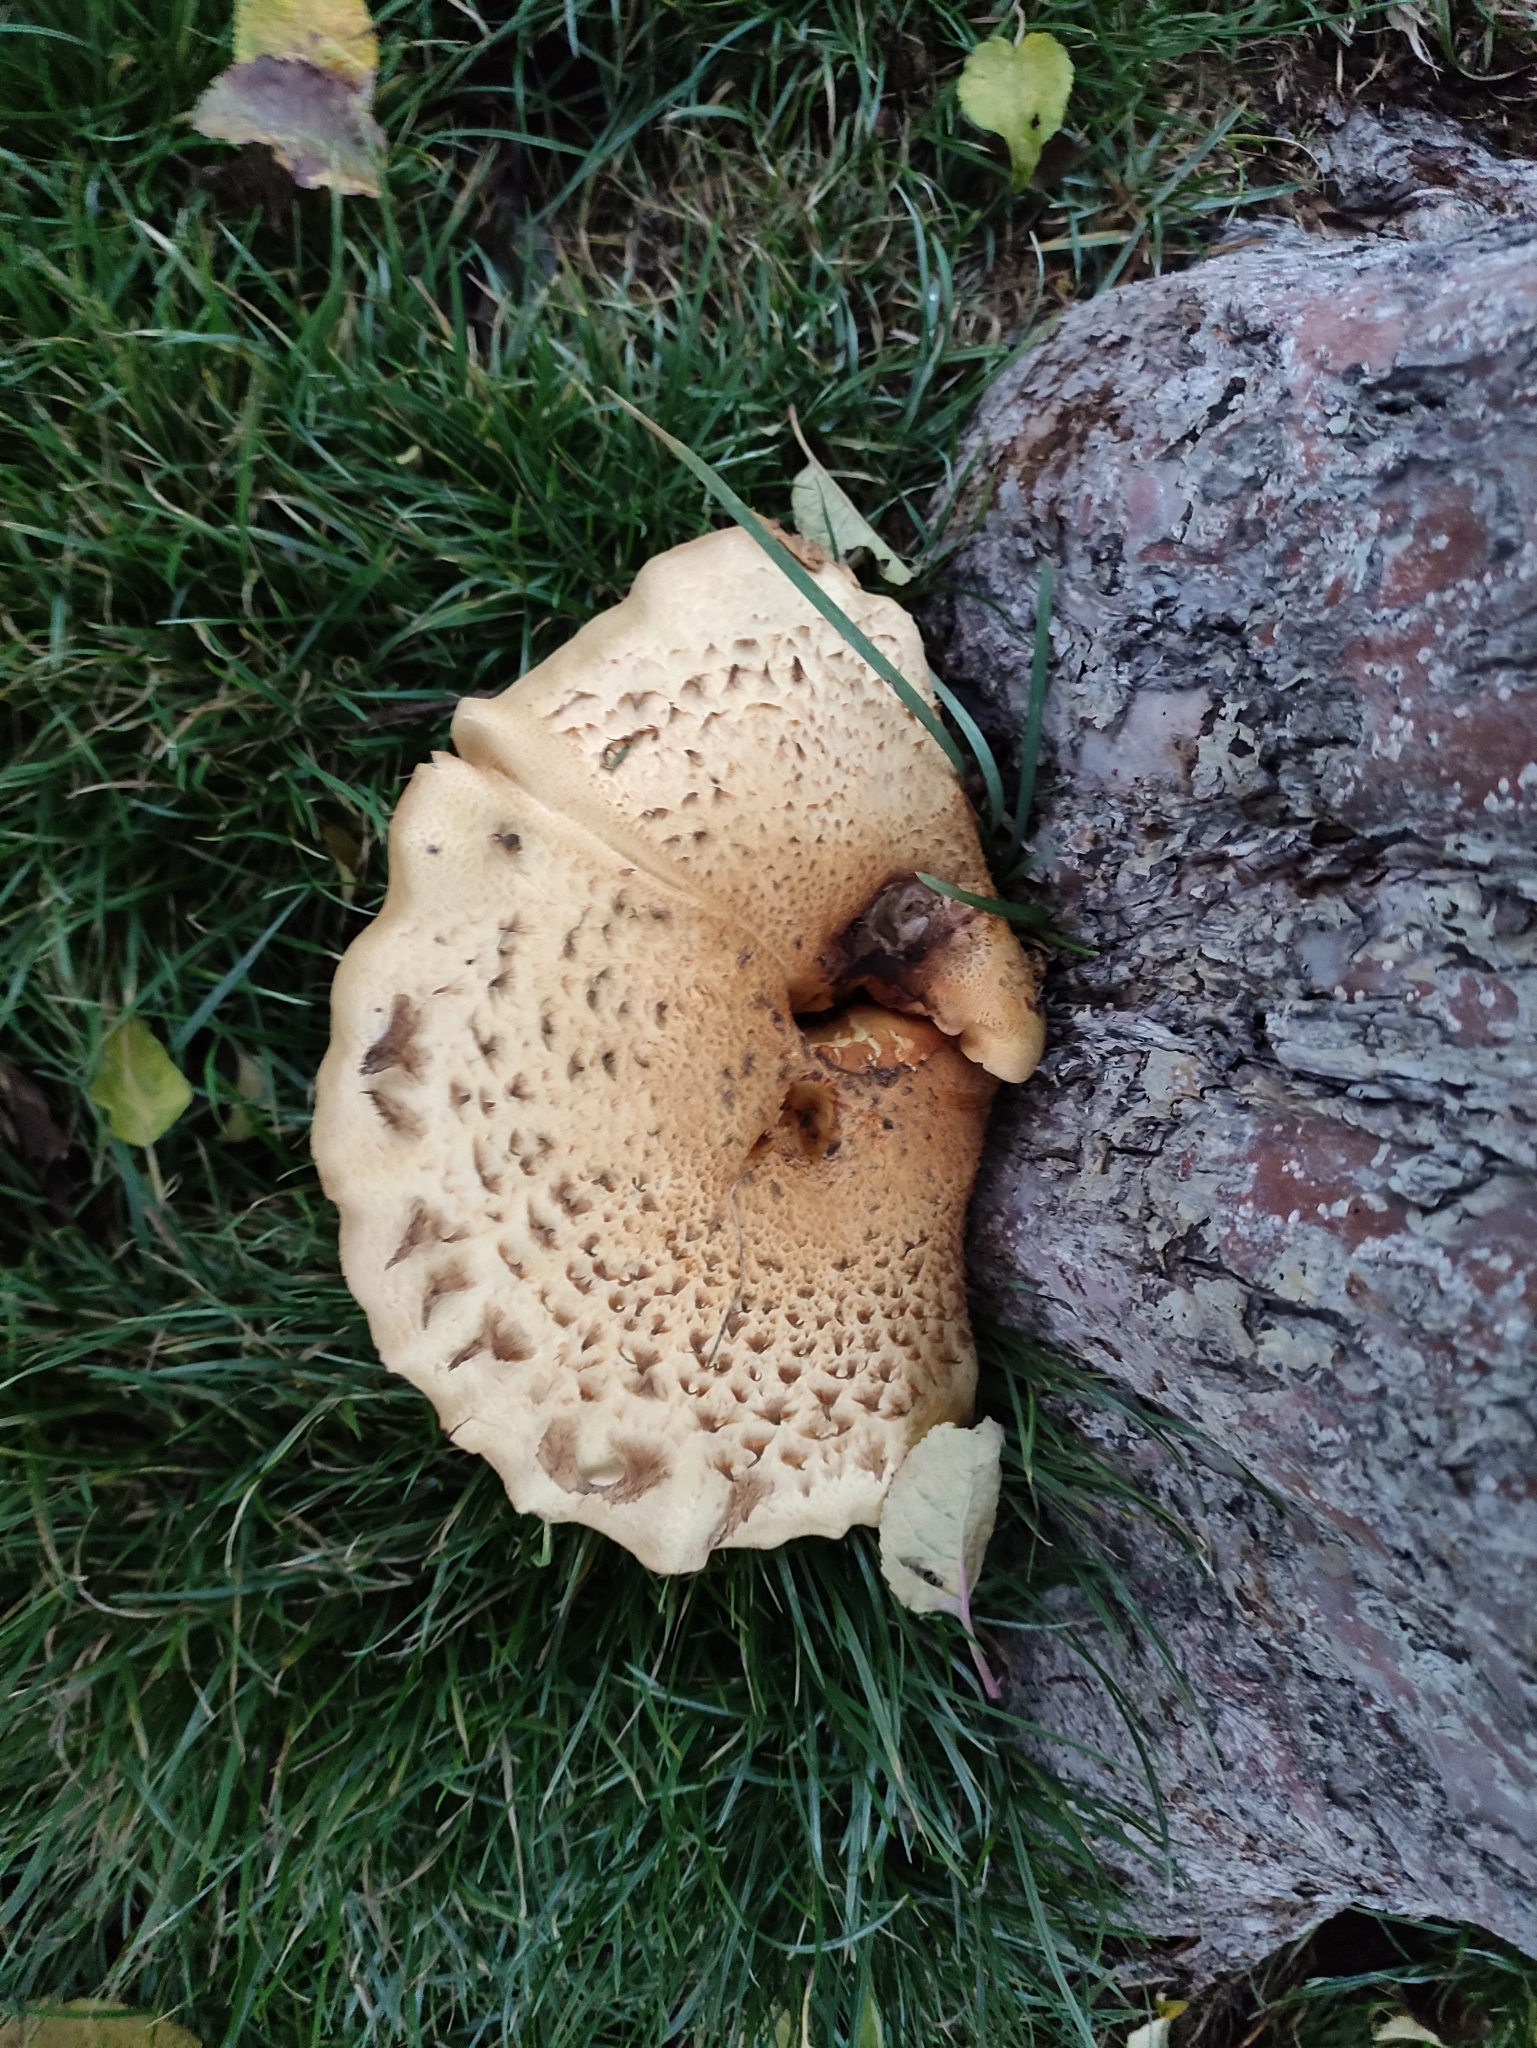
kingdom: Fungi
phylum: Basidiomycota
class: Agaricomycetes
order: Polyporales
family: Polyporaceae
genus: Cerioporus
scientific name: Cerioporus squamosus
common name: Dryad's saddle
